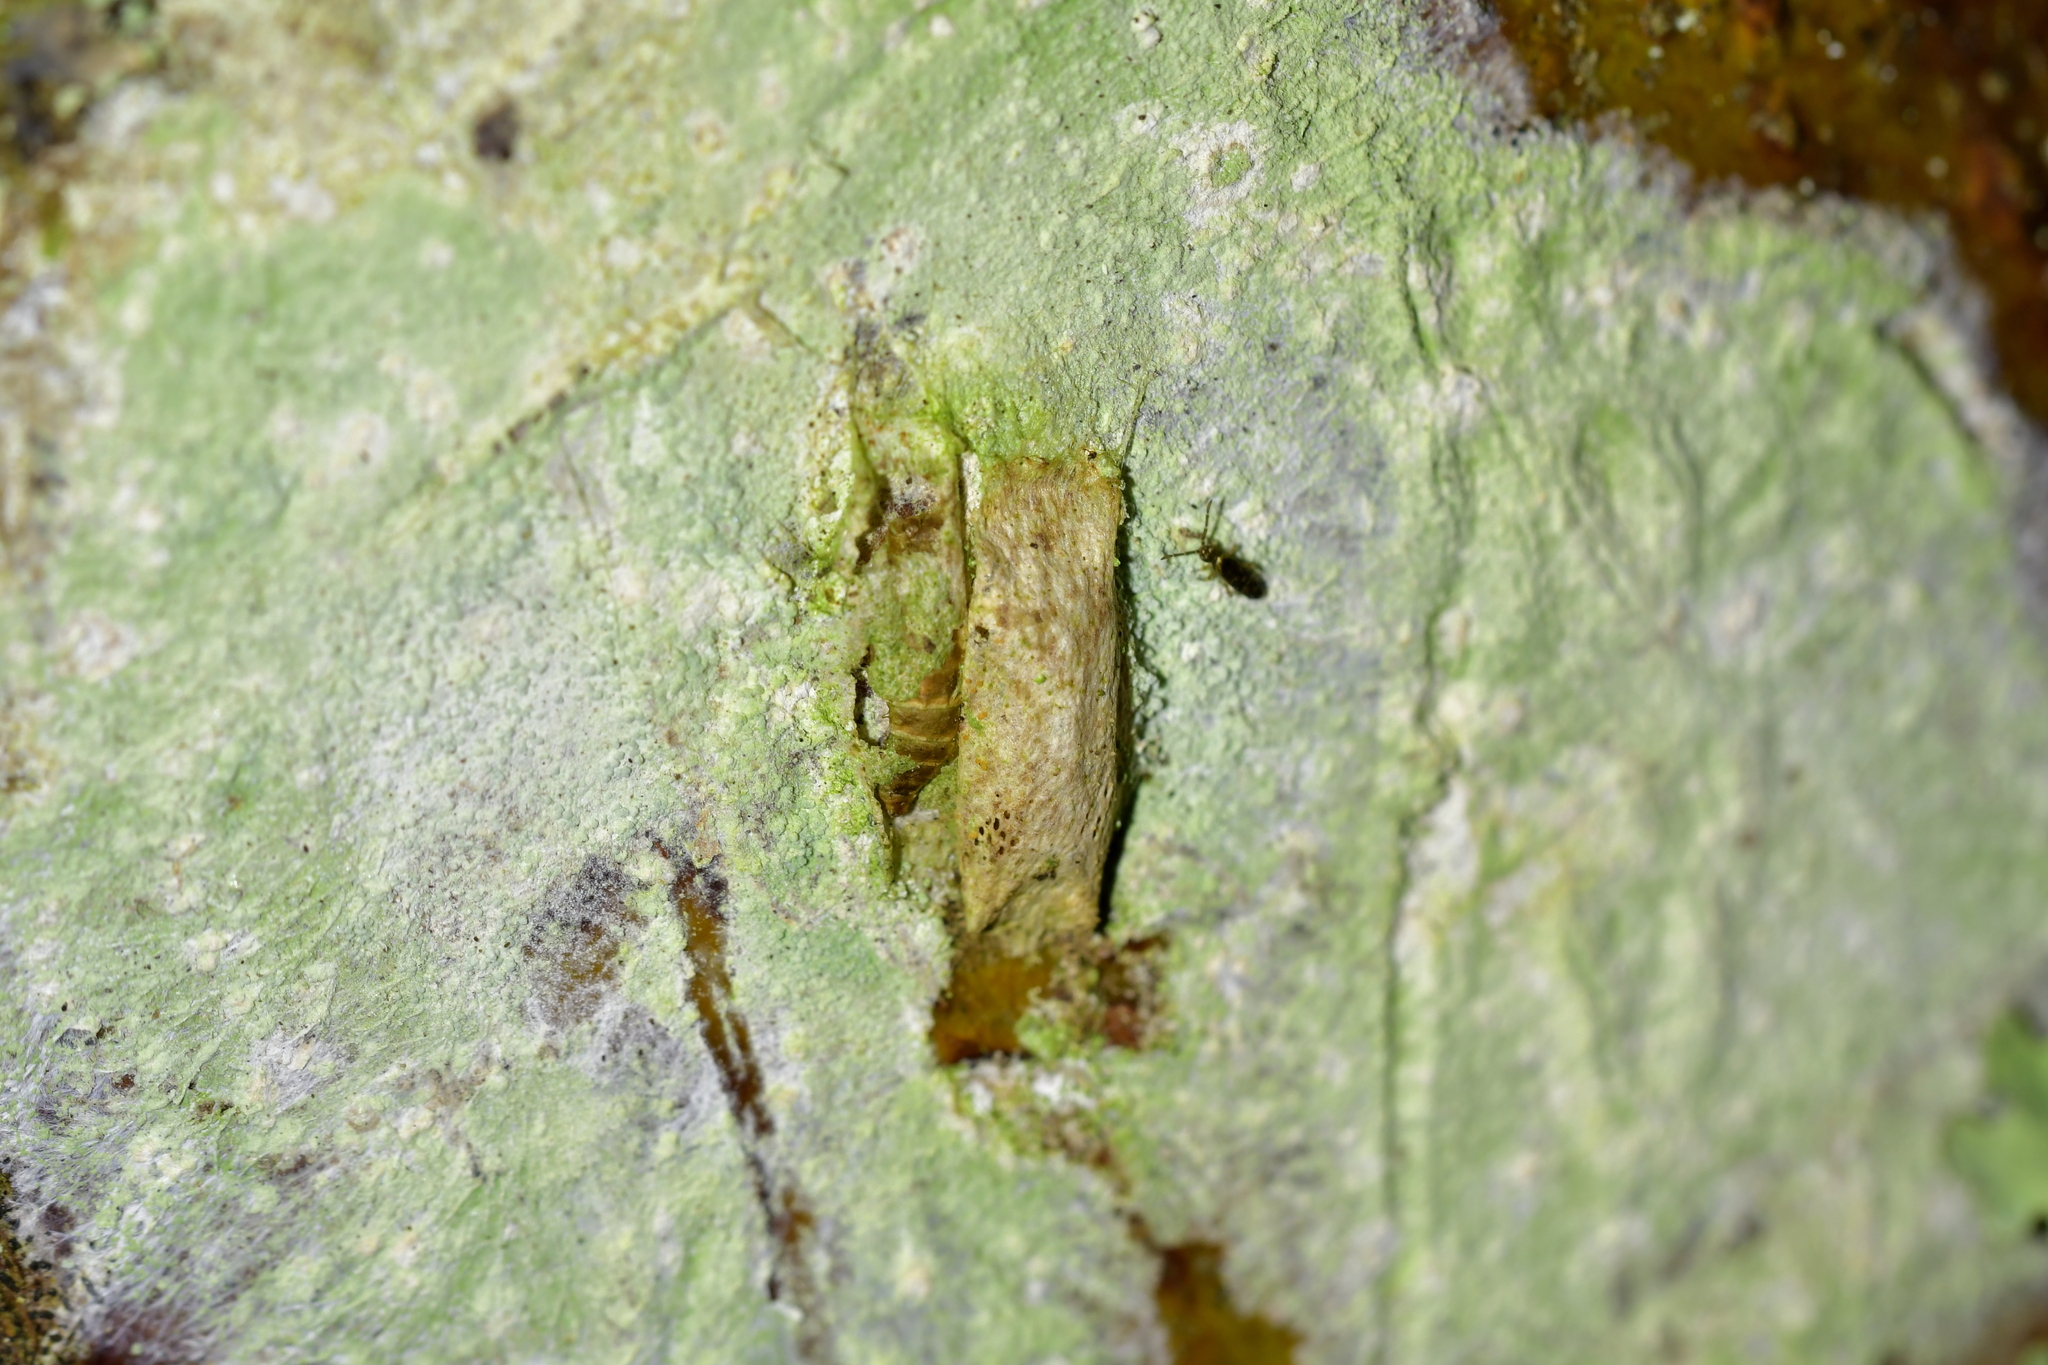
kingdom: Animalia
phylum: Arthropoda
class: Insecta
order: Lepidoptera
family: Plutellidae
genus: Doxophyrtis
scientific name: Doxophyrtis hydrocosma
